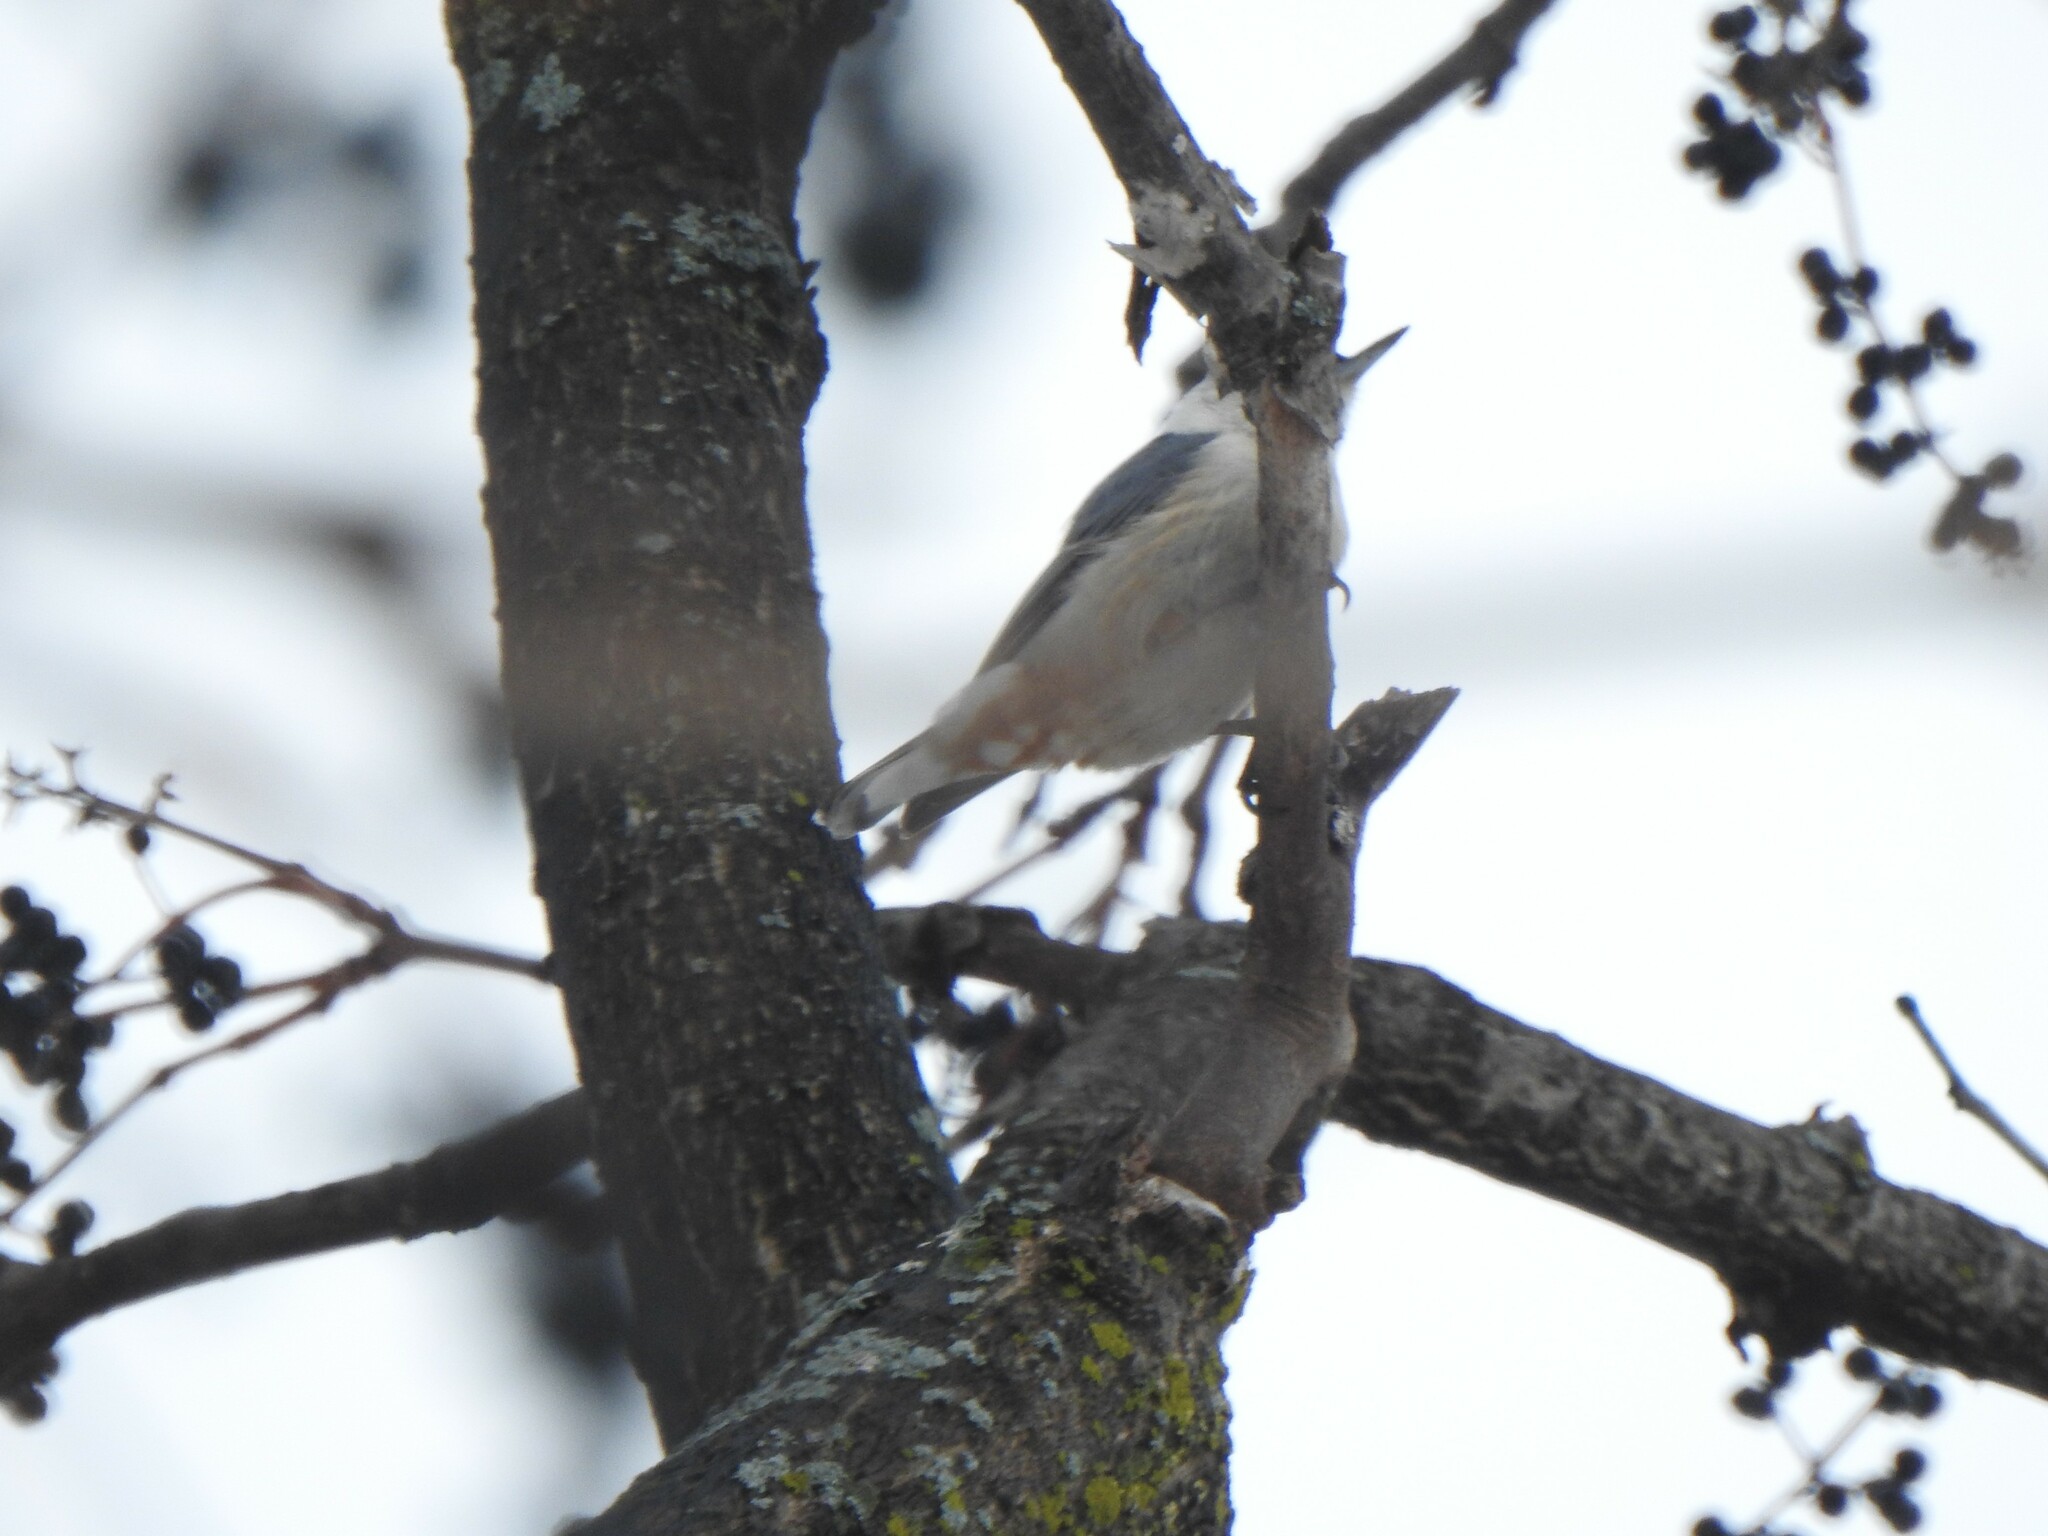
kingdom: Animalia
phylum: Chordata
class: Aves
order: Passeriformes
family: Sittidae
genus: Sitta
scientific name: Sitta carolinensis
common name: White-breasted nuthatch
